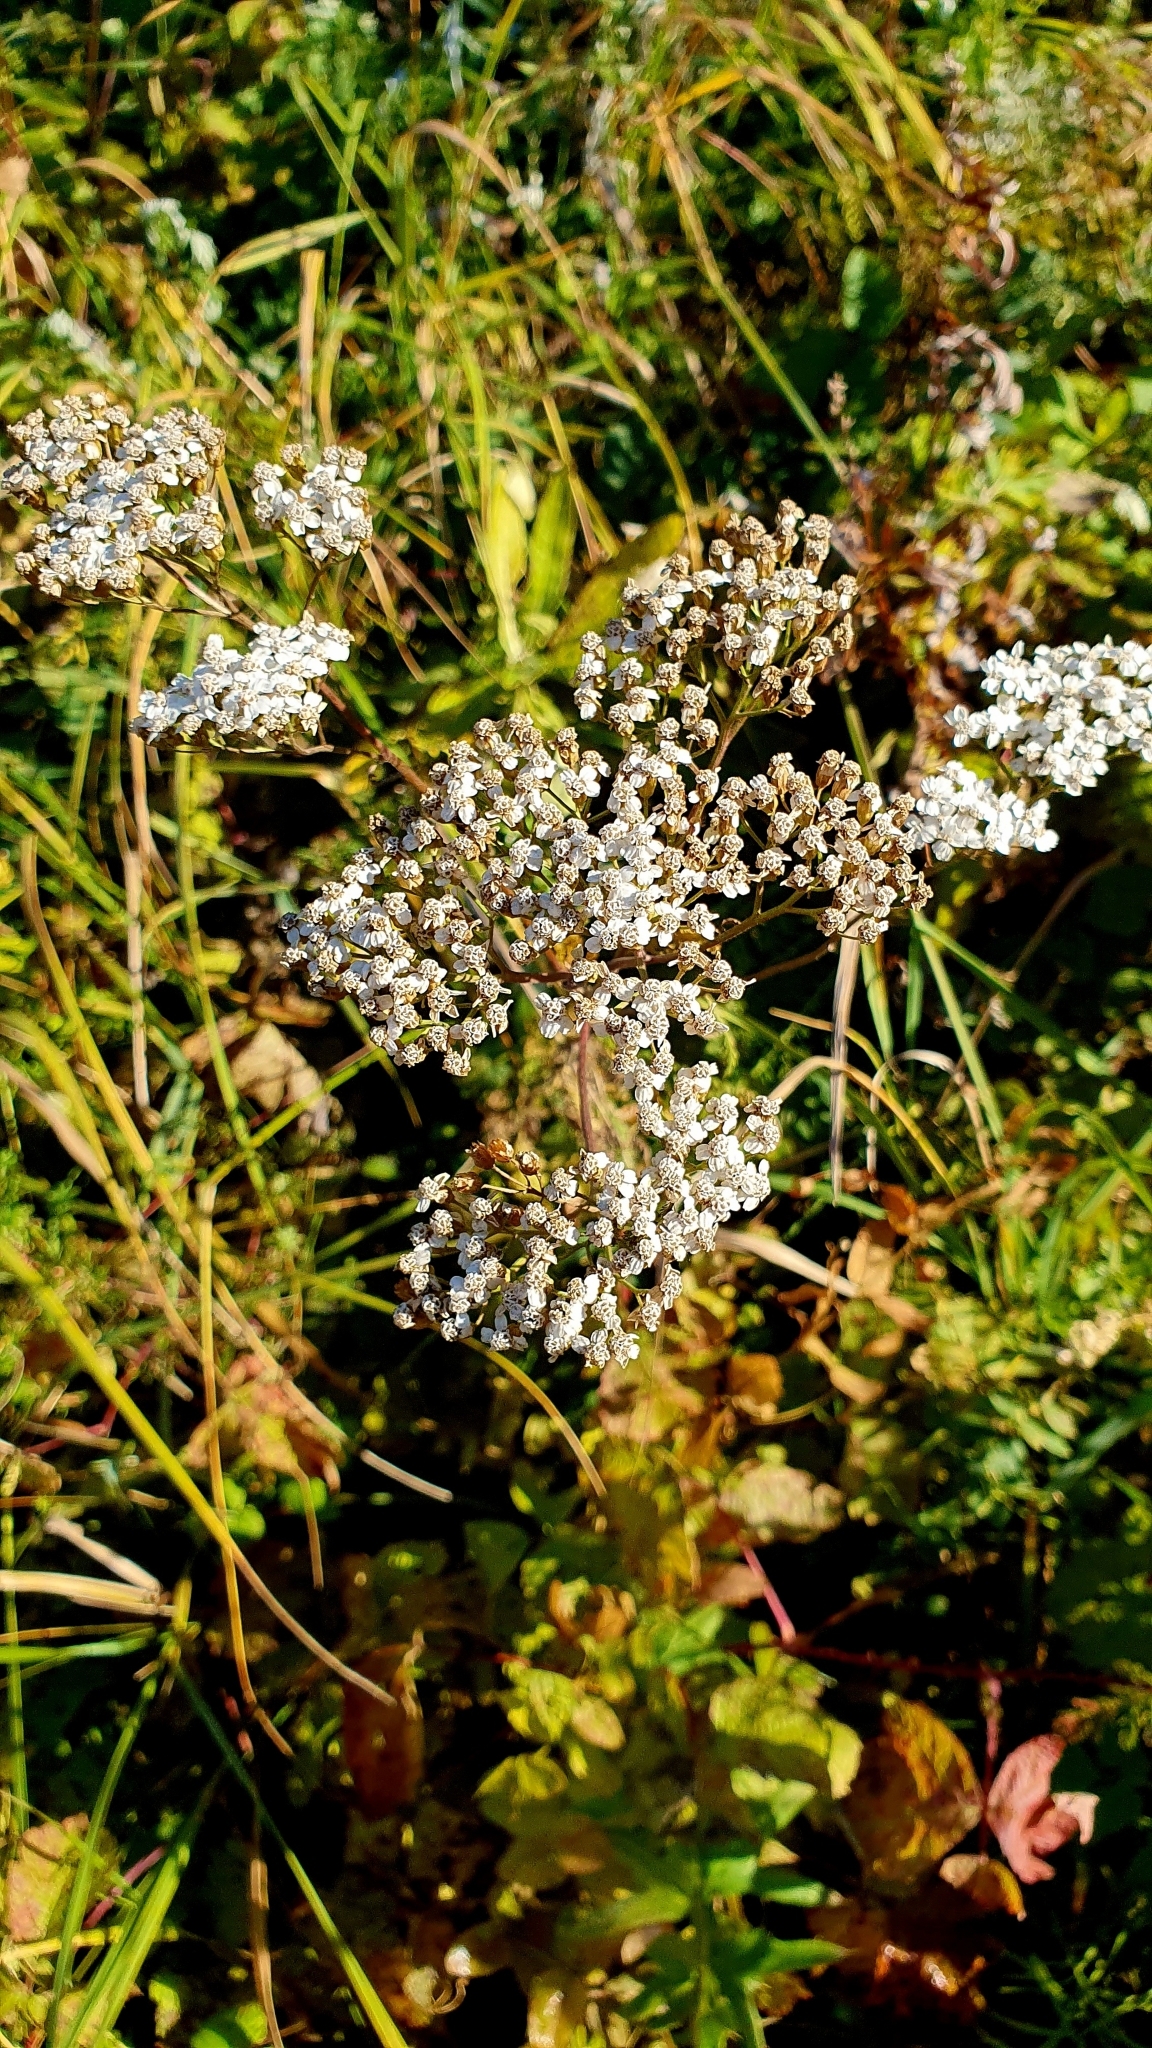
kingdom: Plantae
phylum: Tracheophyta
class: Magnoliopsida
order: Asterales
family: Asteraceae
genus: Achillea
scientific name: Achillea millefolium
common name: Yarrow
